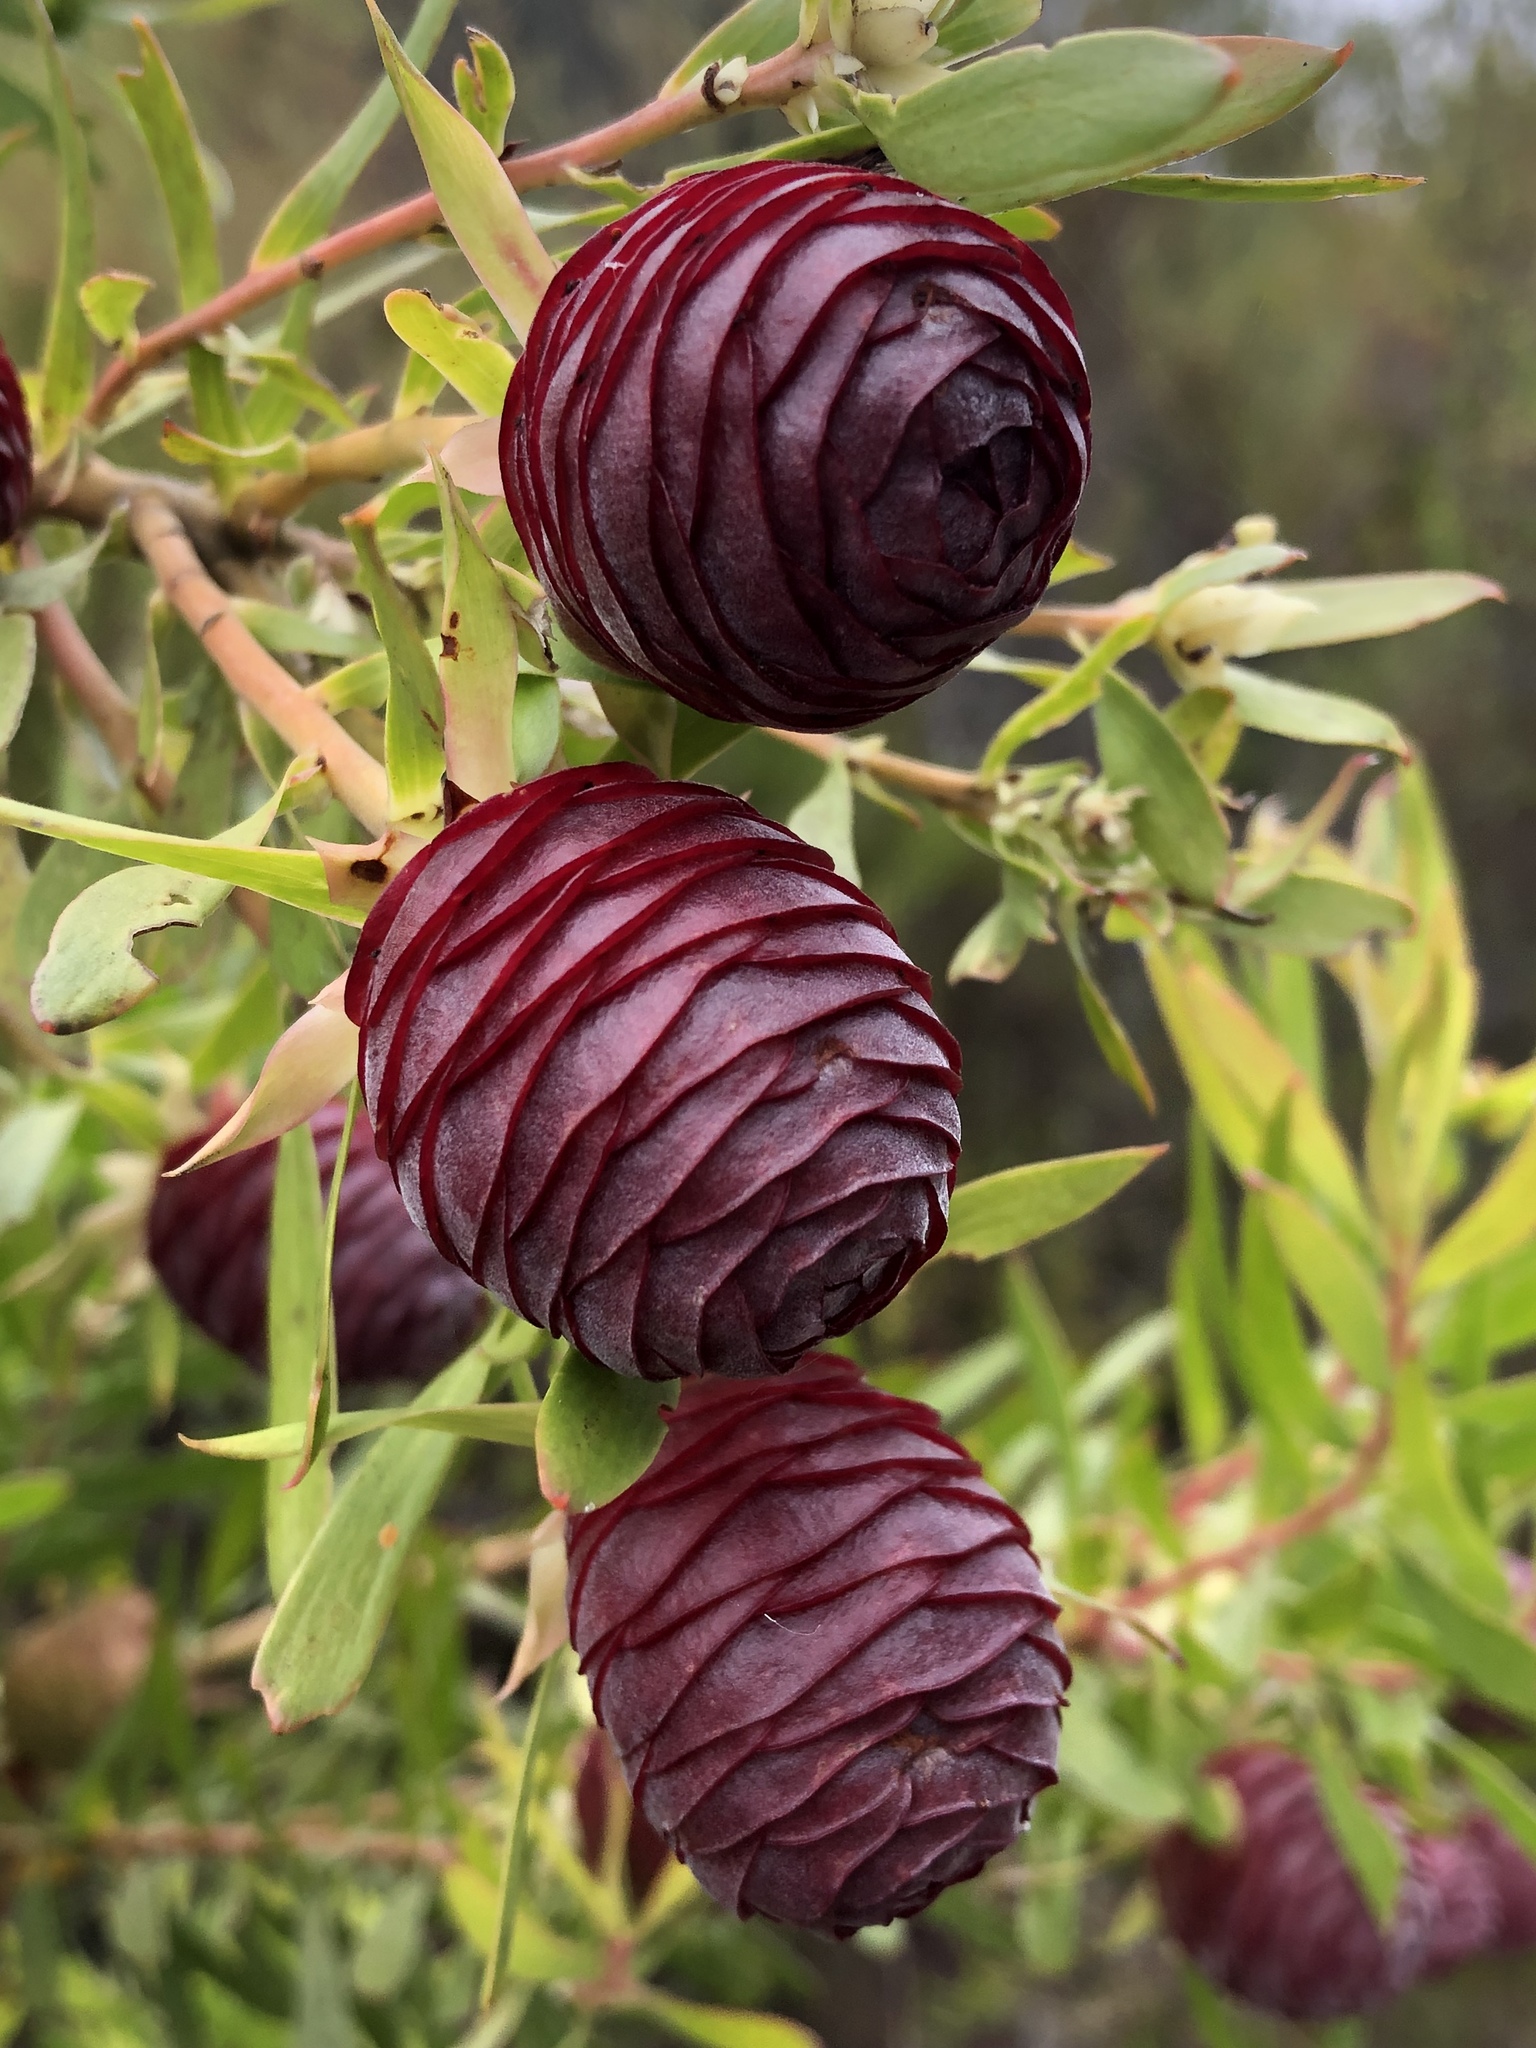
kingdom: Plantae
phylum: Tracheophyta
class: Magnoliopsida
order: Proteales
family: Proteaceae
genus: Leucadendron
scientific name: Leucadendron conicum
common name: Garden route conebush
